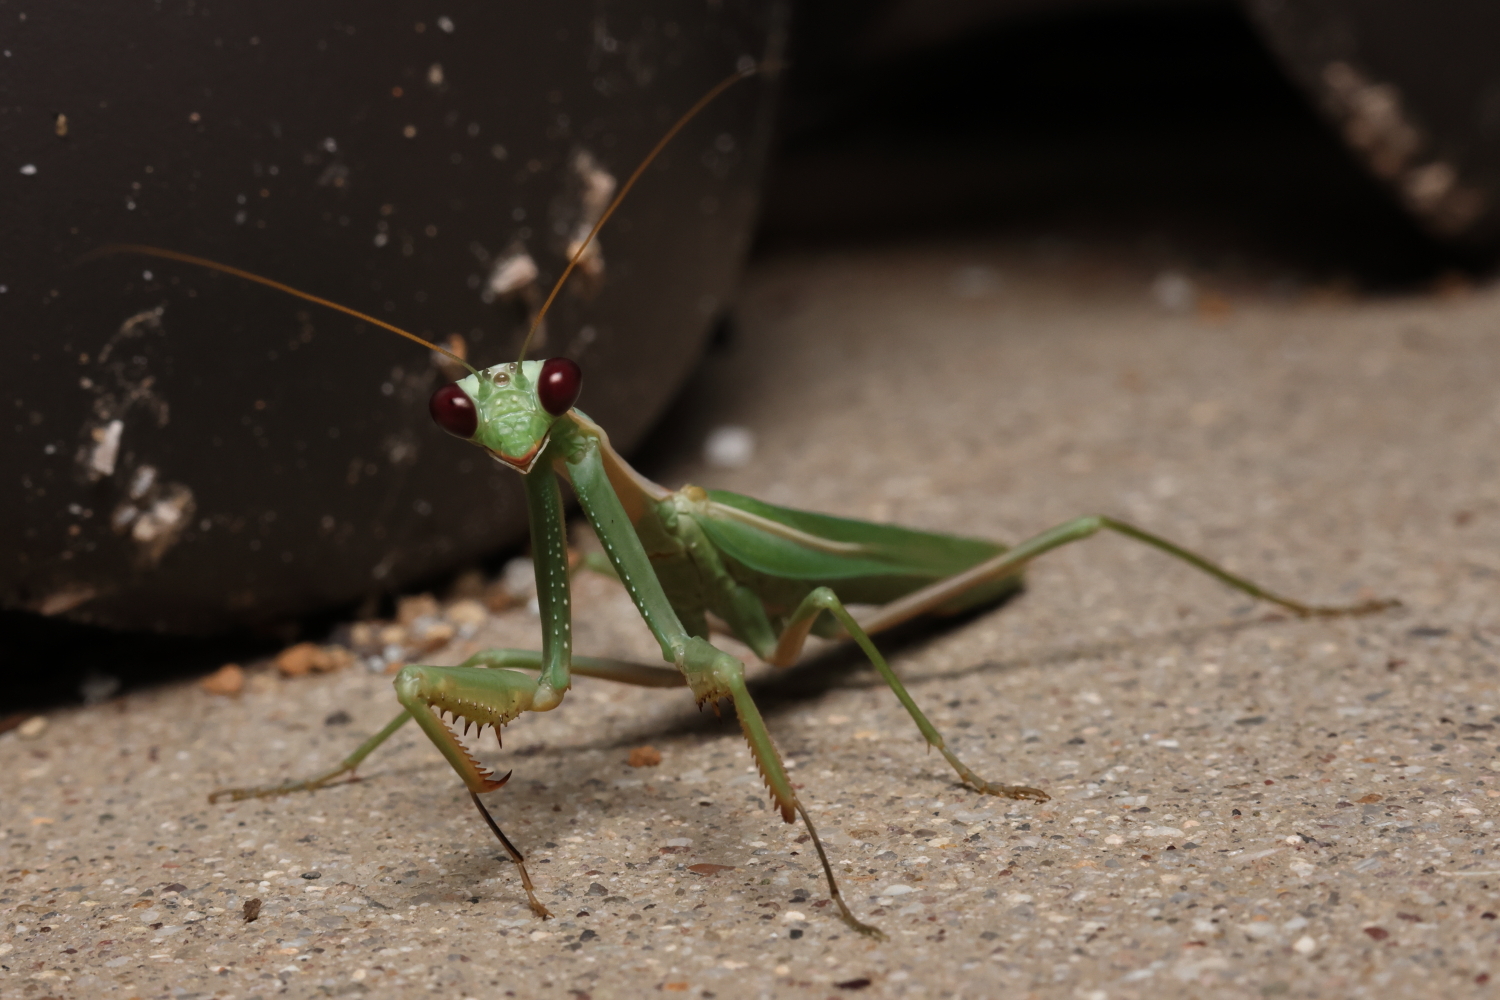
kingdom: Animalia
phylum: Arthropoda
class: Insecta
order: Mantodea
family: Eremiaphilidae
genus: Iris
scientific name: Iris oratoria
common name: Mediterranean mantis
